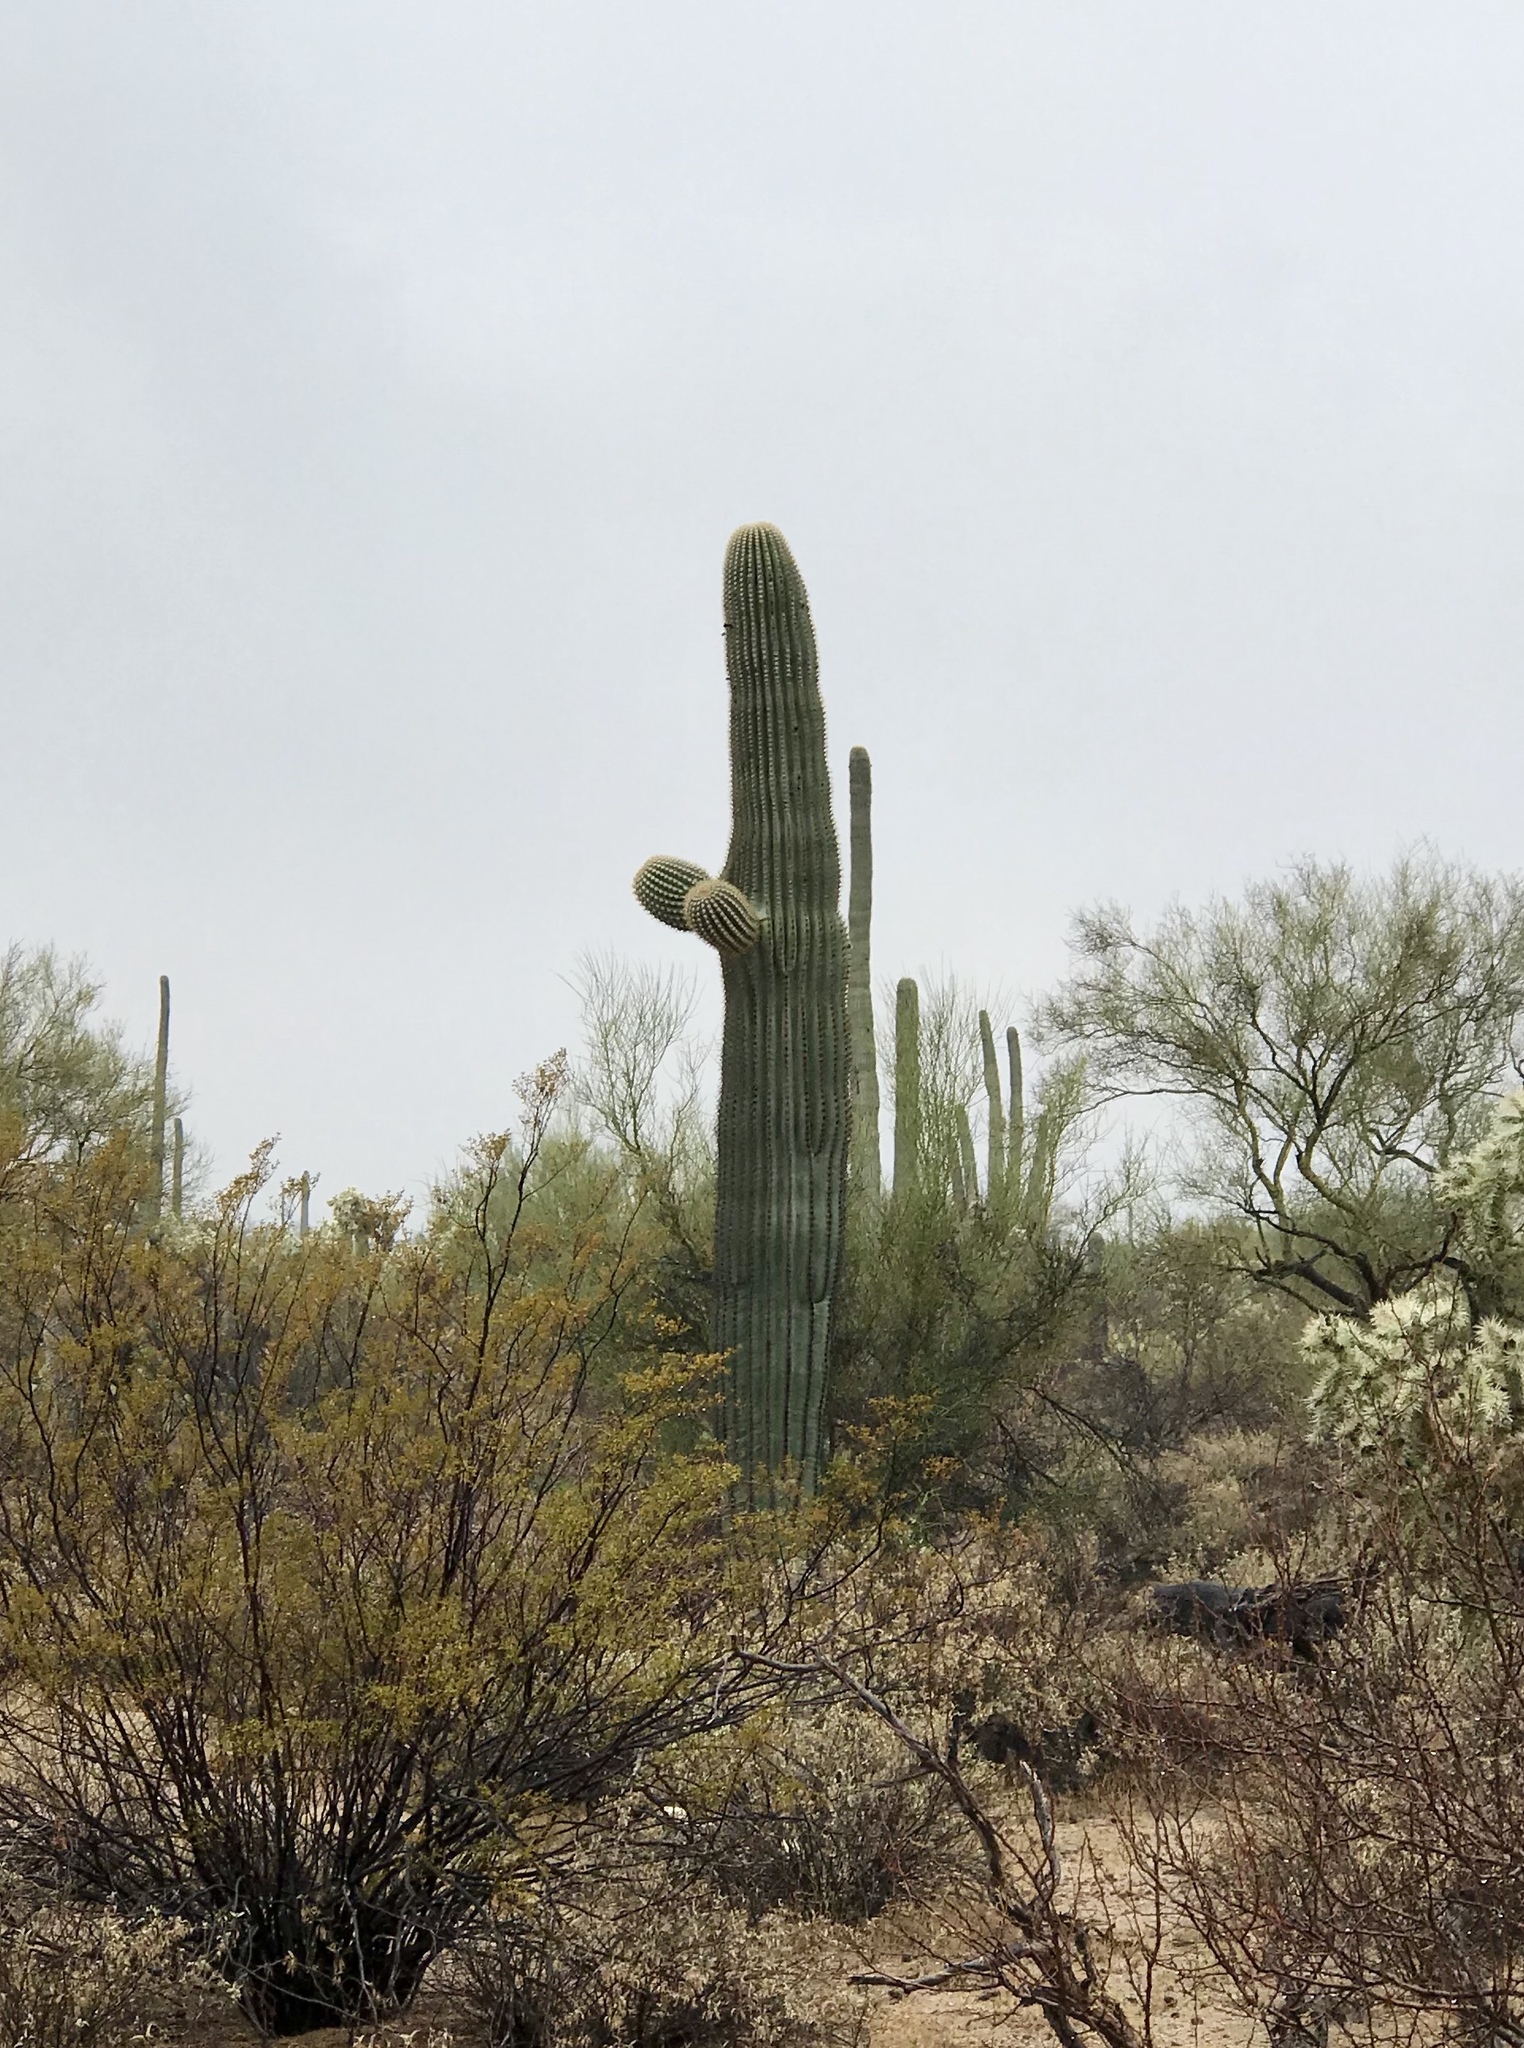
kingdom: Plantae
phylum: Tracheophyta
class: Magnoliopsida
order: Caryophyllales
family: Cactaceae
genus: Carnegiea
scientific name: Carnegiea gigantea
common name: Saguaro
